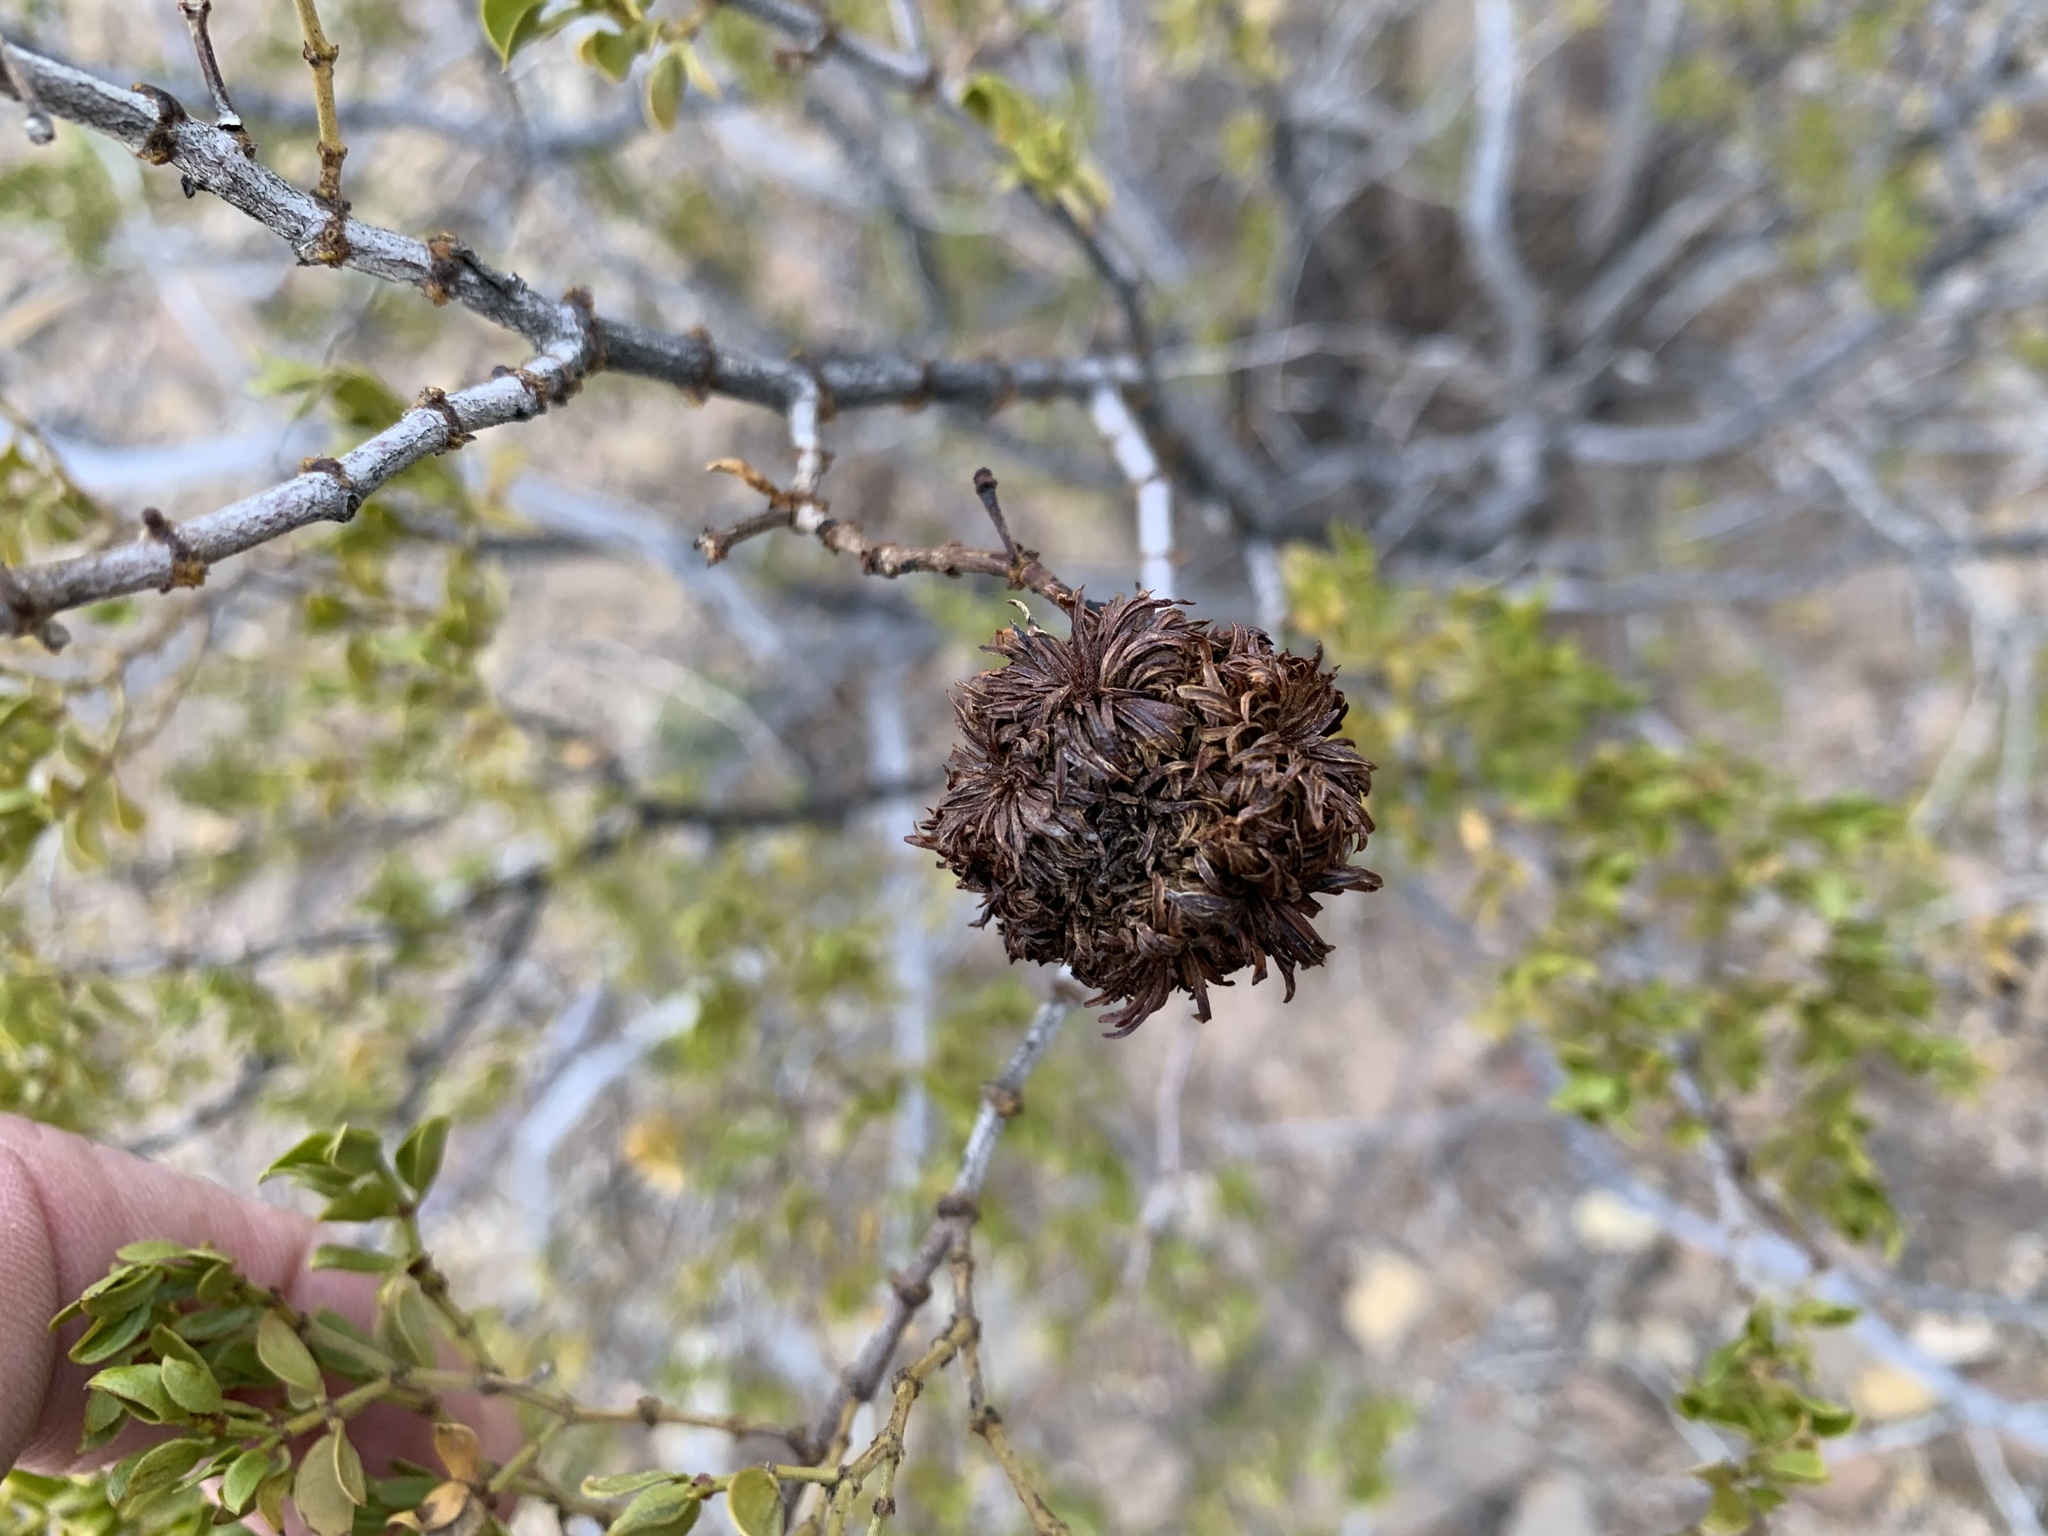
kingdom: Animalia
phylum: Arthropoda
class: Insecta
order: Diptera
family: Cecidomyiidae
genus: Asphondylia
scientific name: Asphondylia auripila
